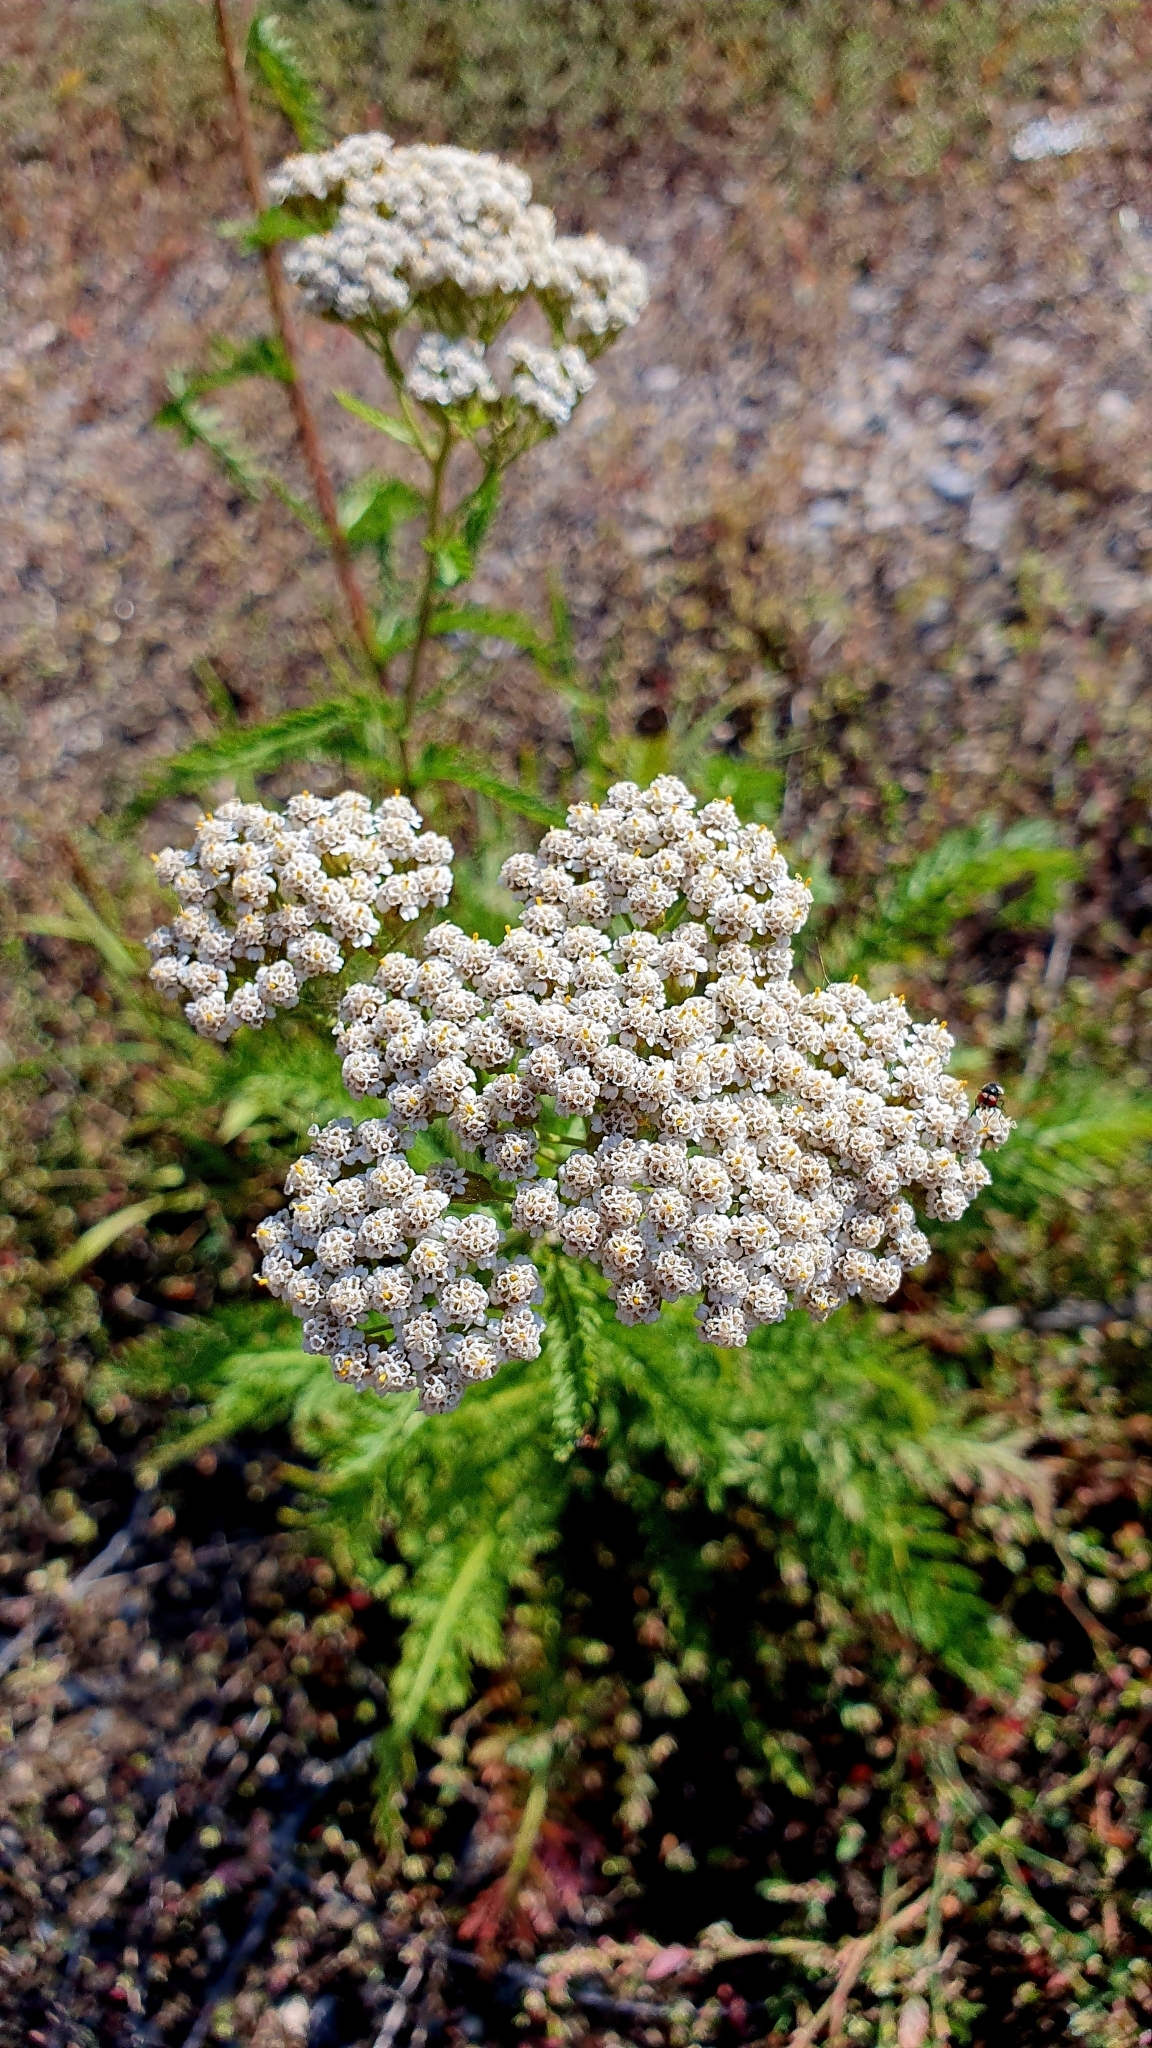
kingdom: Plantae
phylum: Tracheophyta
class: Magnoliopsida
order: Asterales
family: Asteraceae
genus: Achillea
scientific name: Achillea millefolium
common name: Yarrow
